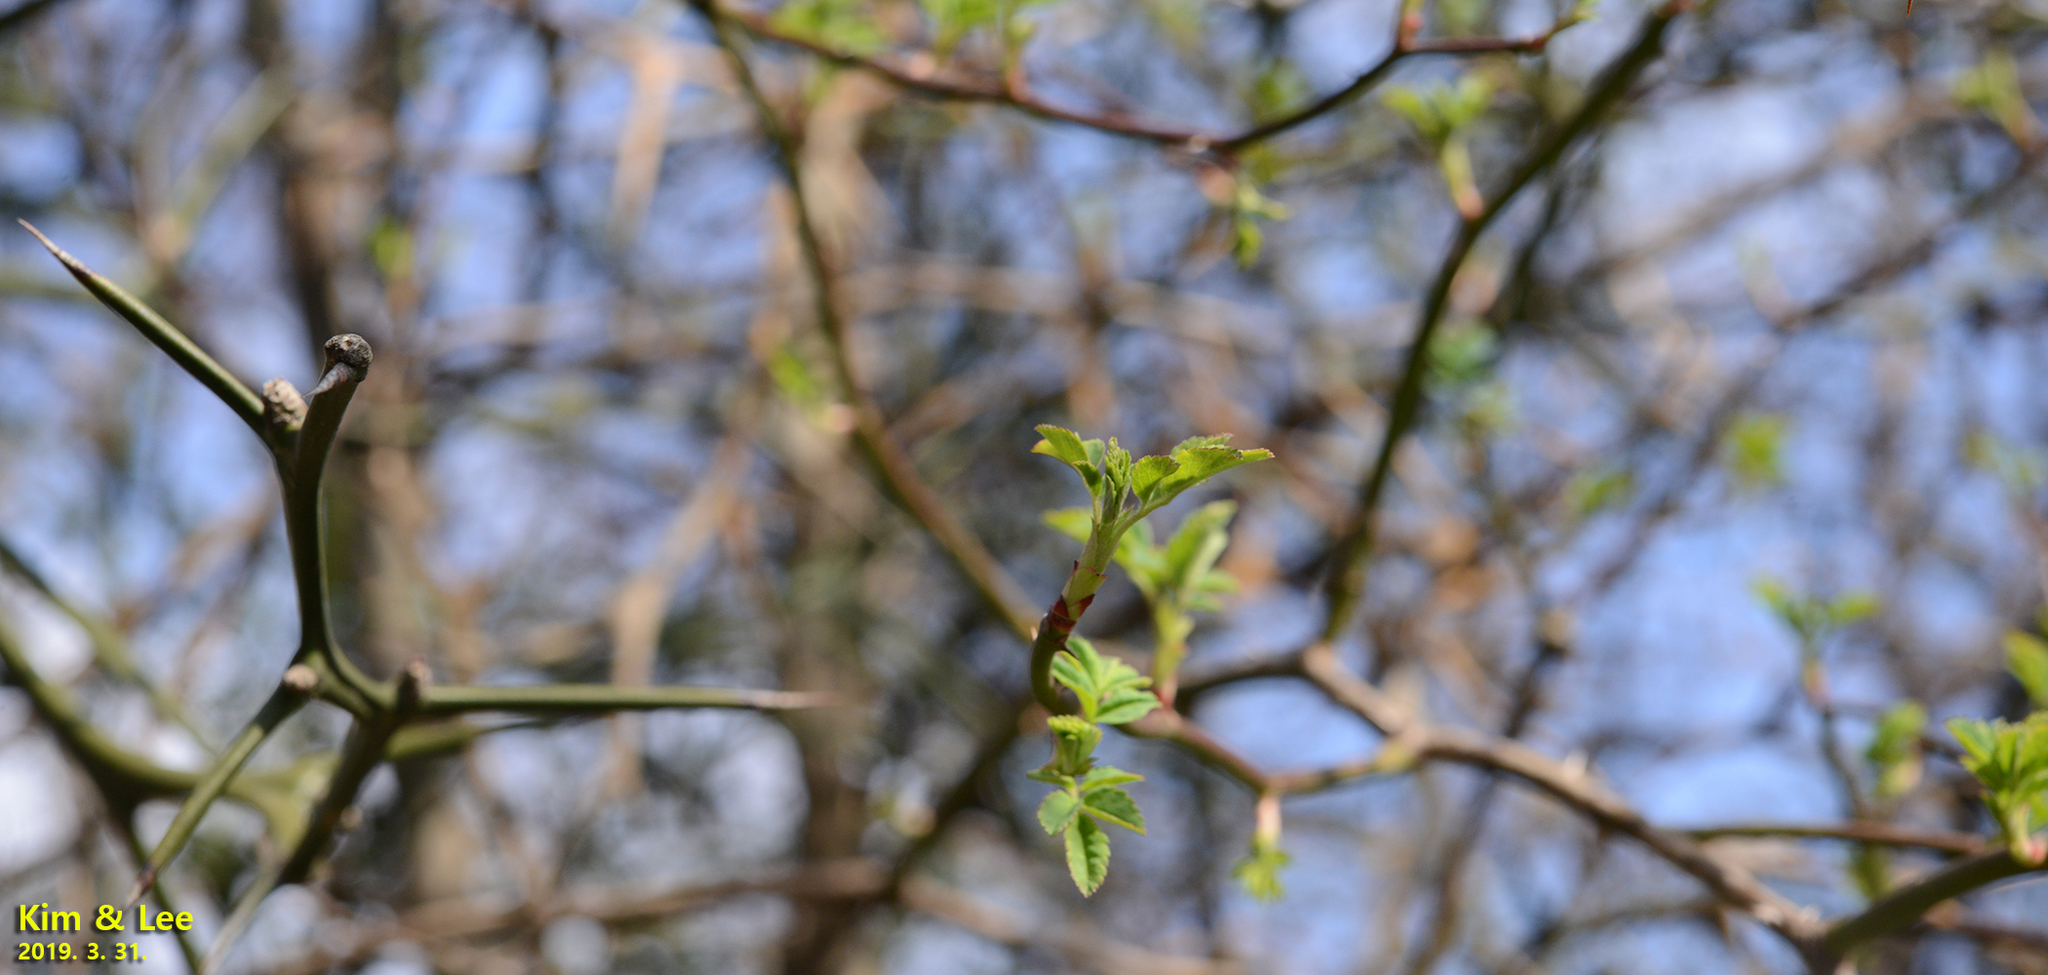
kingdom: Plantae
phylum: Tracheophyta
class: Magnoliopsida
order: Sapindales
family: Rutaceae
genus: Citrus
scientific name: Citrus trifoliata
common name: Japanese bitter-orange
